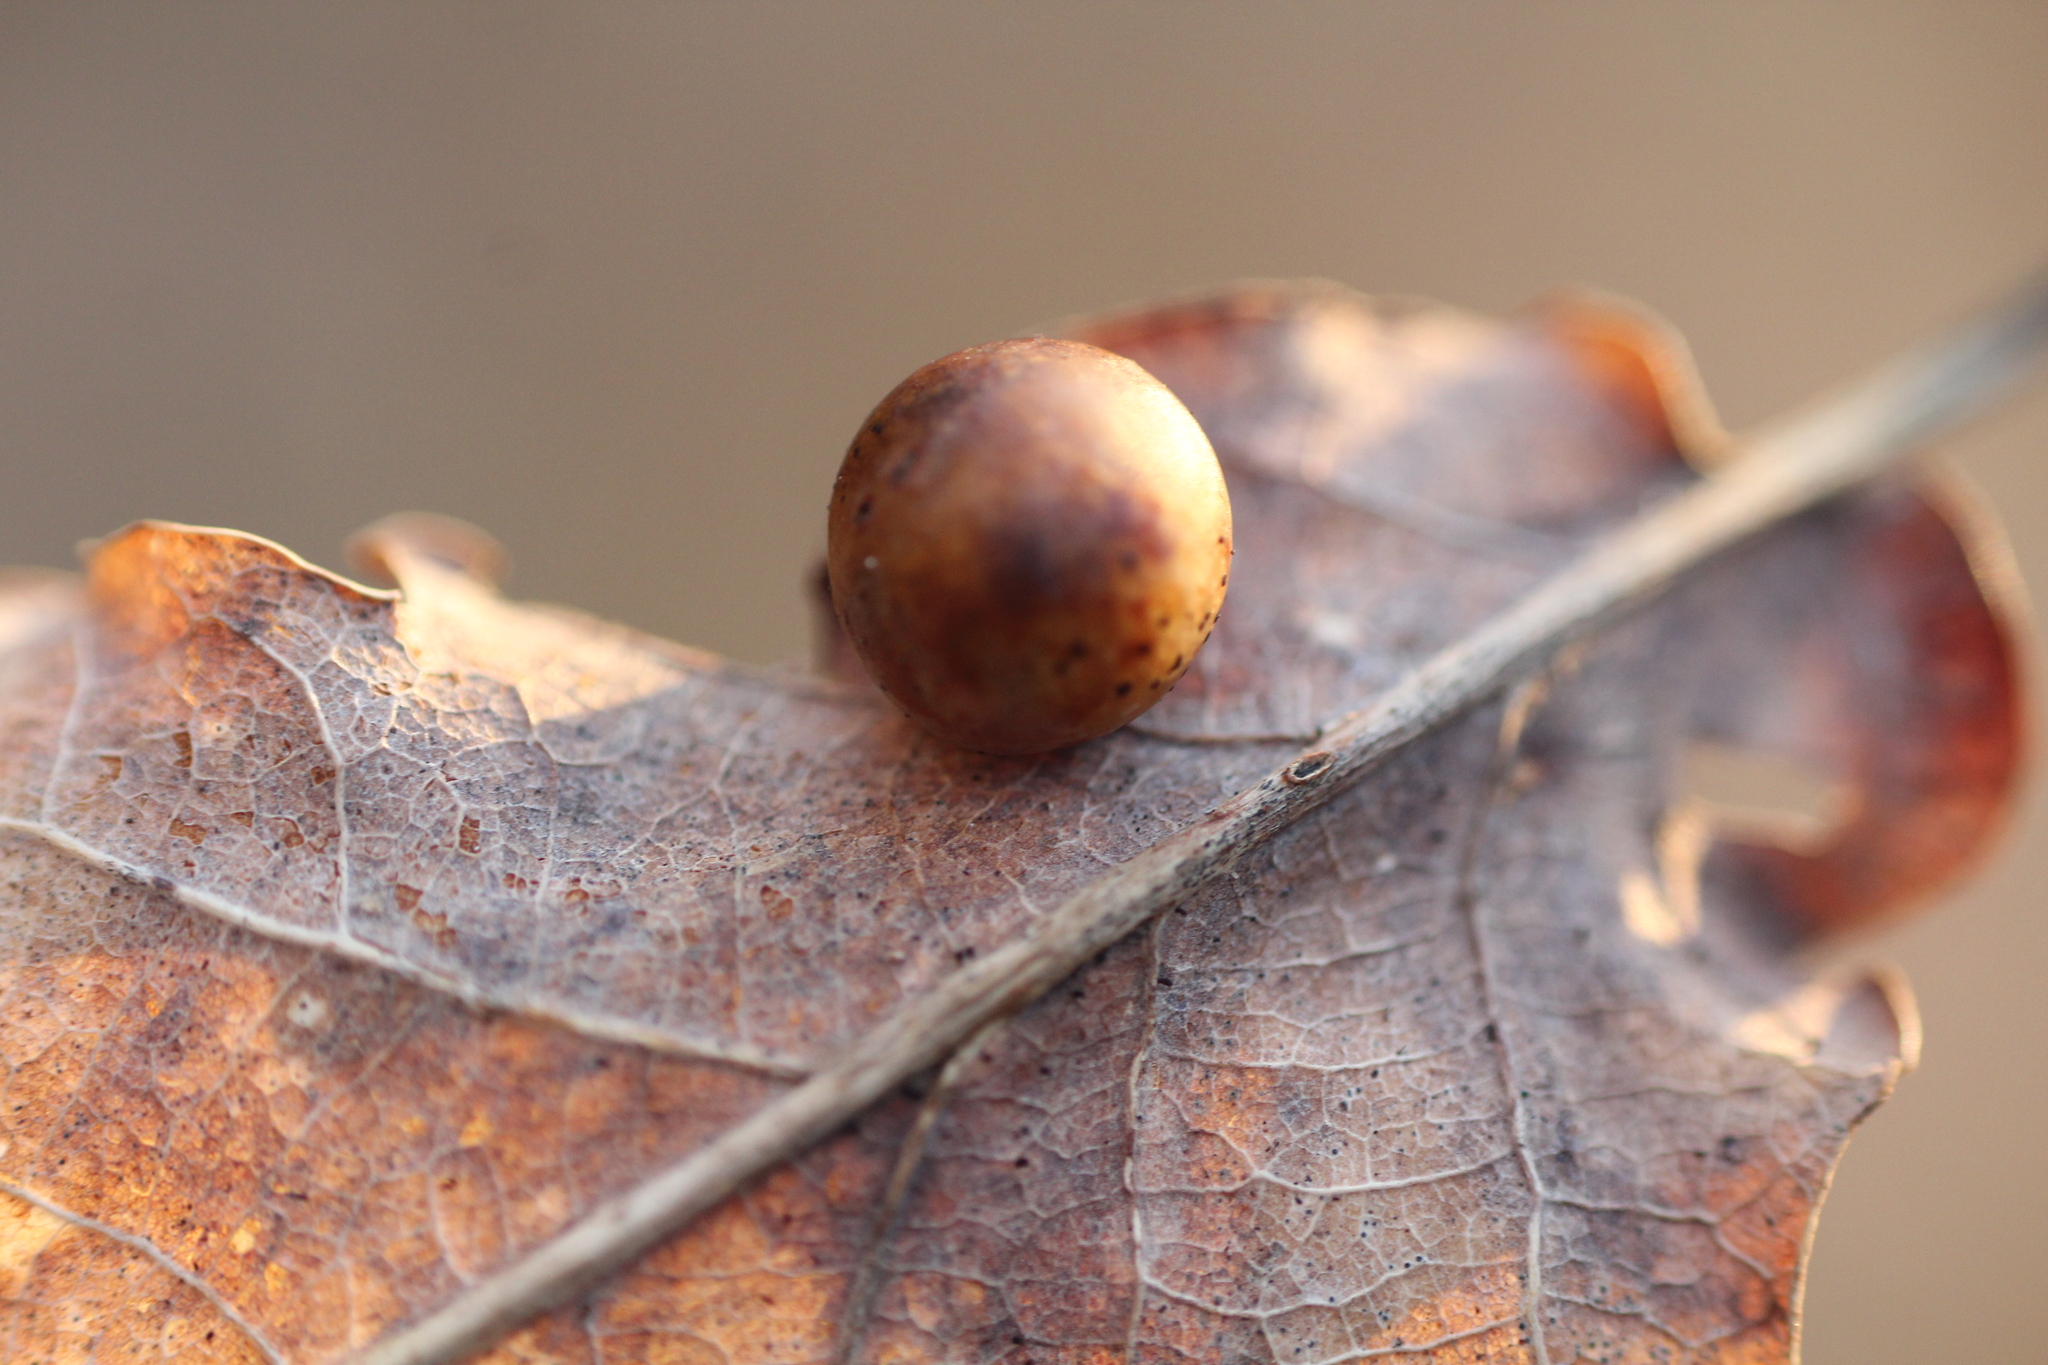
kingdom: Animalia
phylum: Arthropoda
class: Insecta
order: Hymenoptera
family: Cynipidae
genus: Cynips
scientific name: Cynips quercusfolii
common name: Cherry gall
